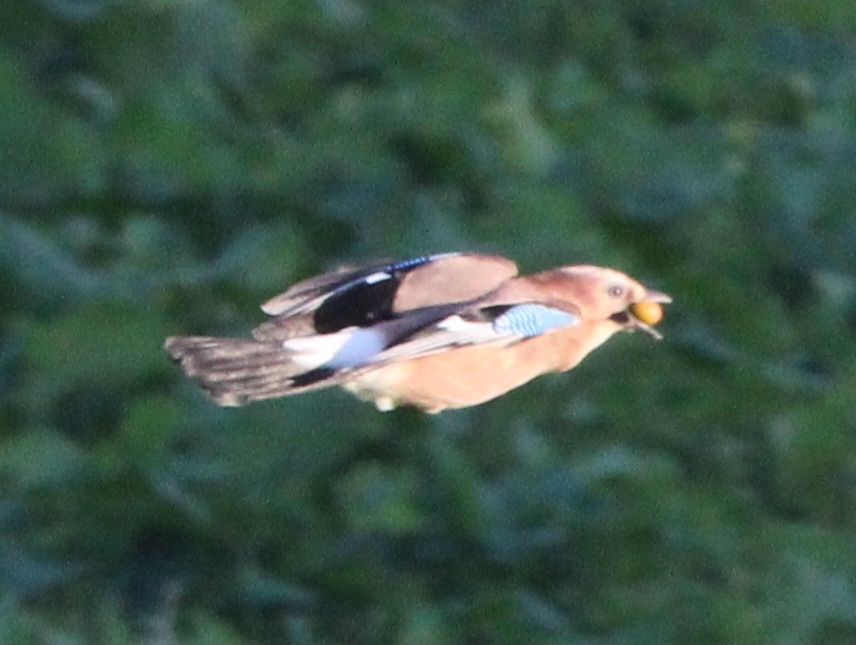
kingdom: Animalia
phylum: Chordata
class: Aves
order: Passeriformes
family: Corvidae
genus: Garrulus
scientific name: Garrulus glandarius
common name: Eurasian jay
